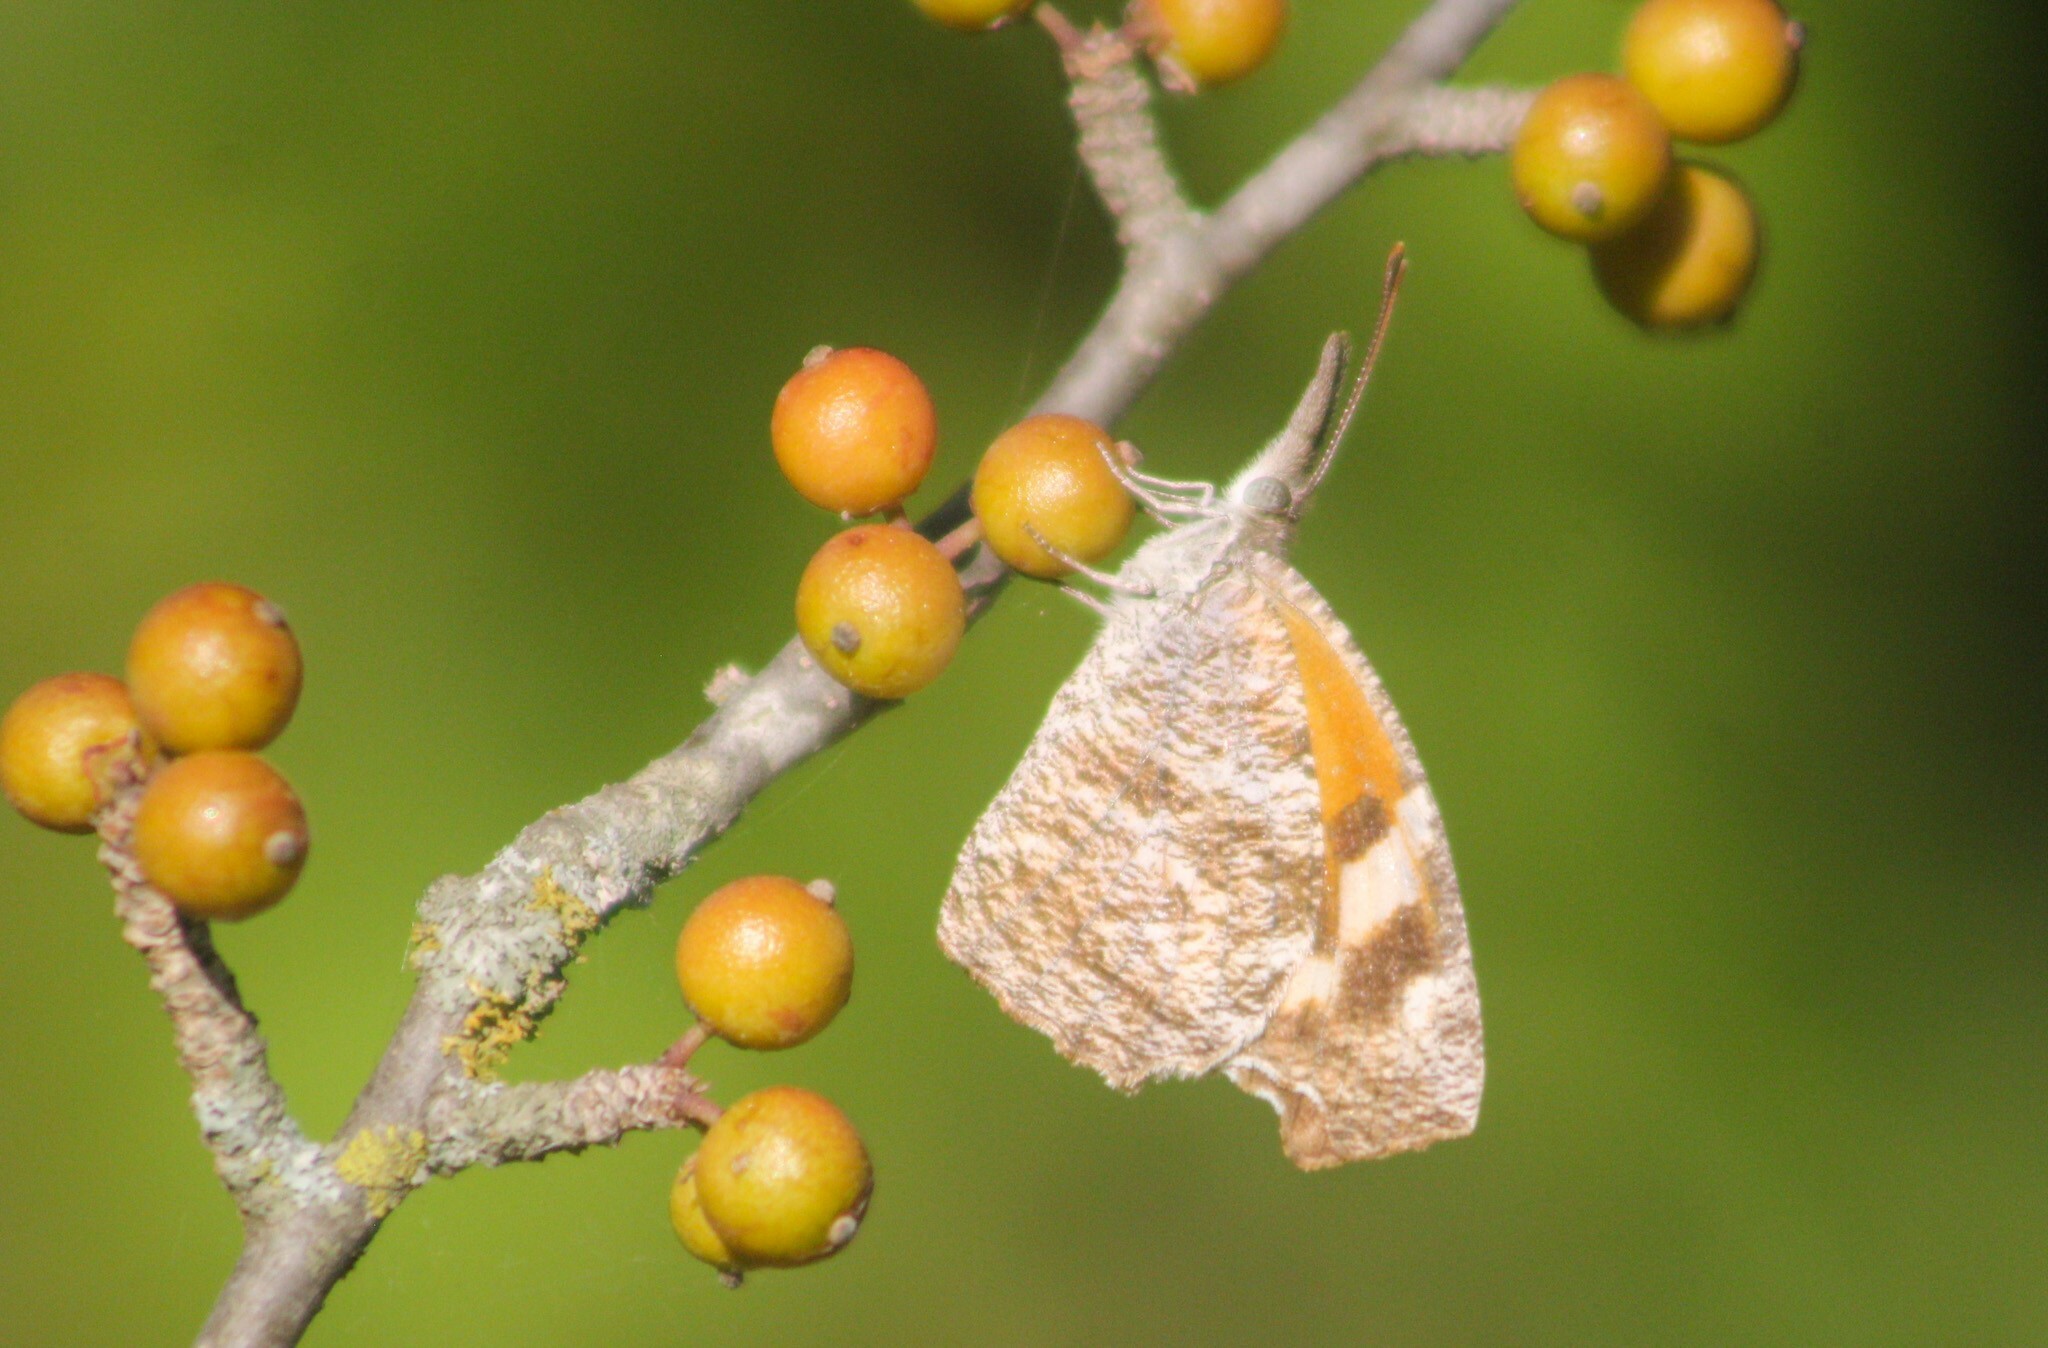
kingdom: Animalia
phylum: Arthropoda
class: Insecta
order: Lepidoptera
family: Nymphalidae
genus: Libytheana
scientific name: Libytheana carinenta
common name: American snout
